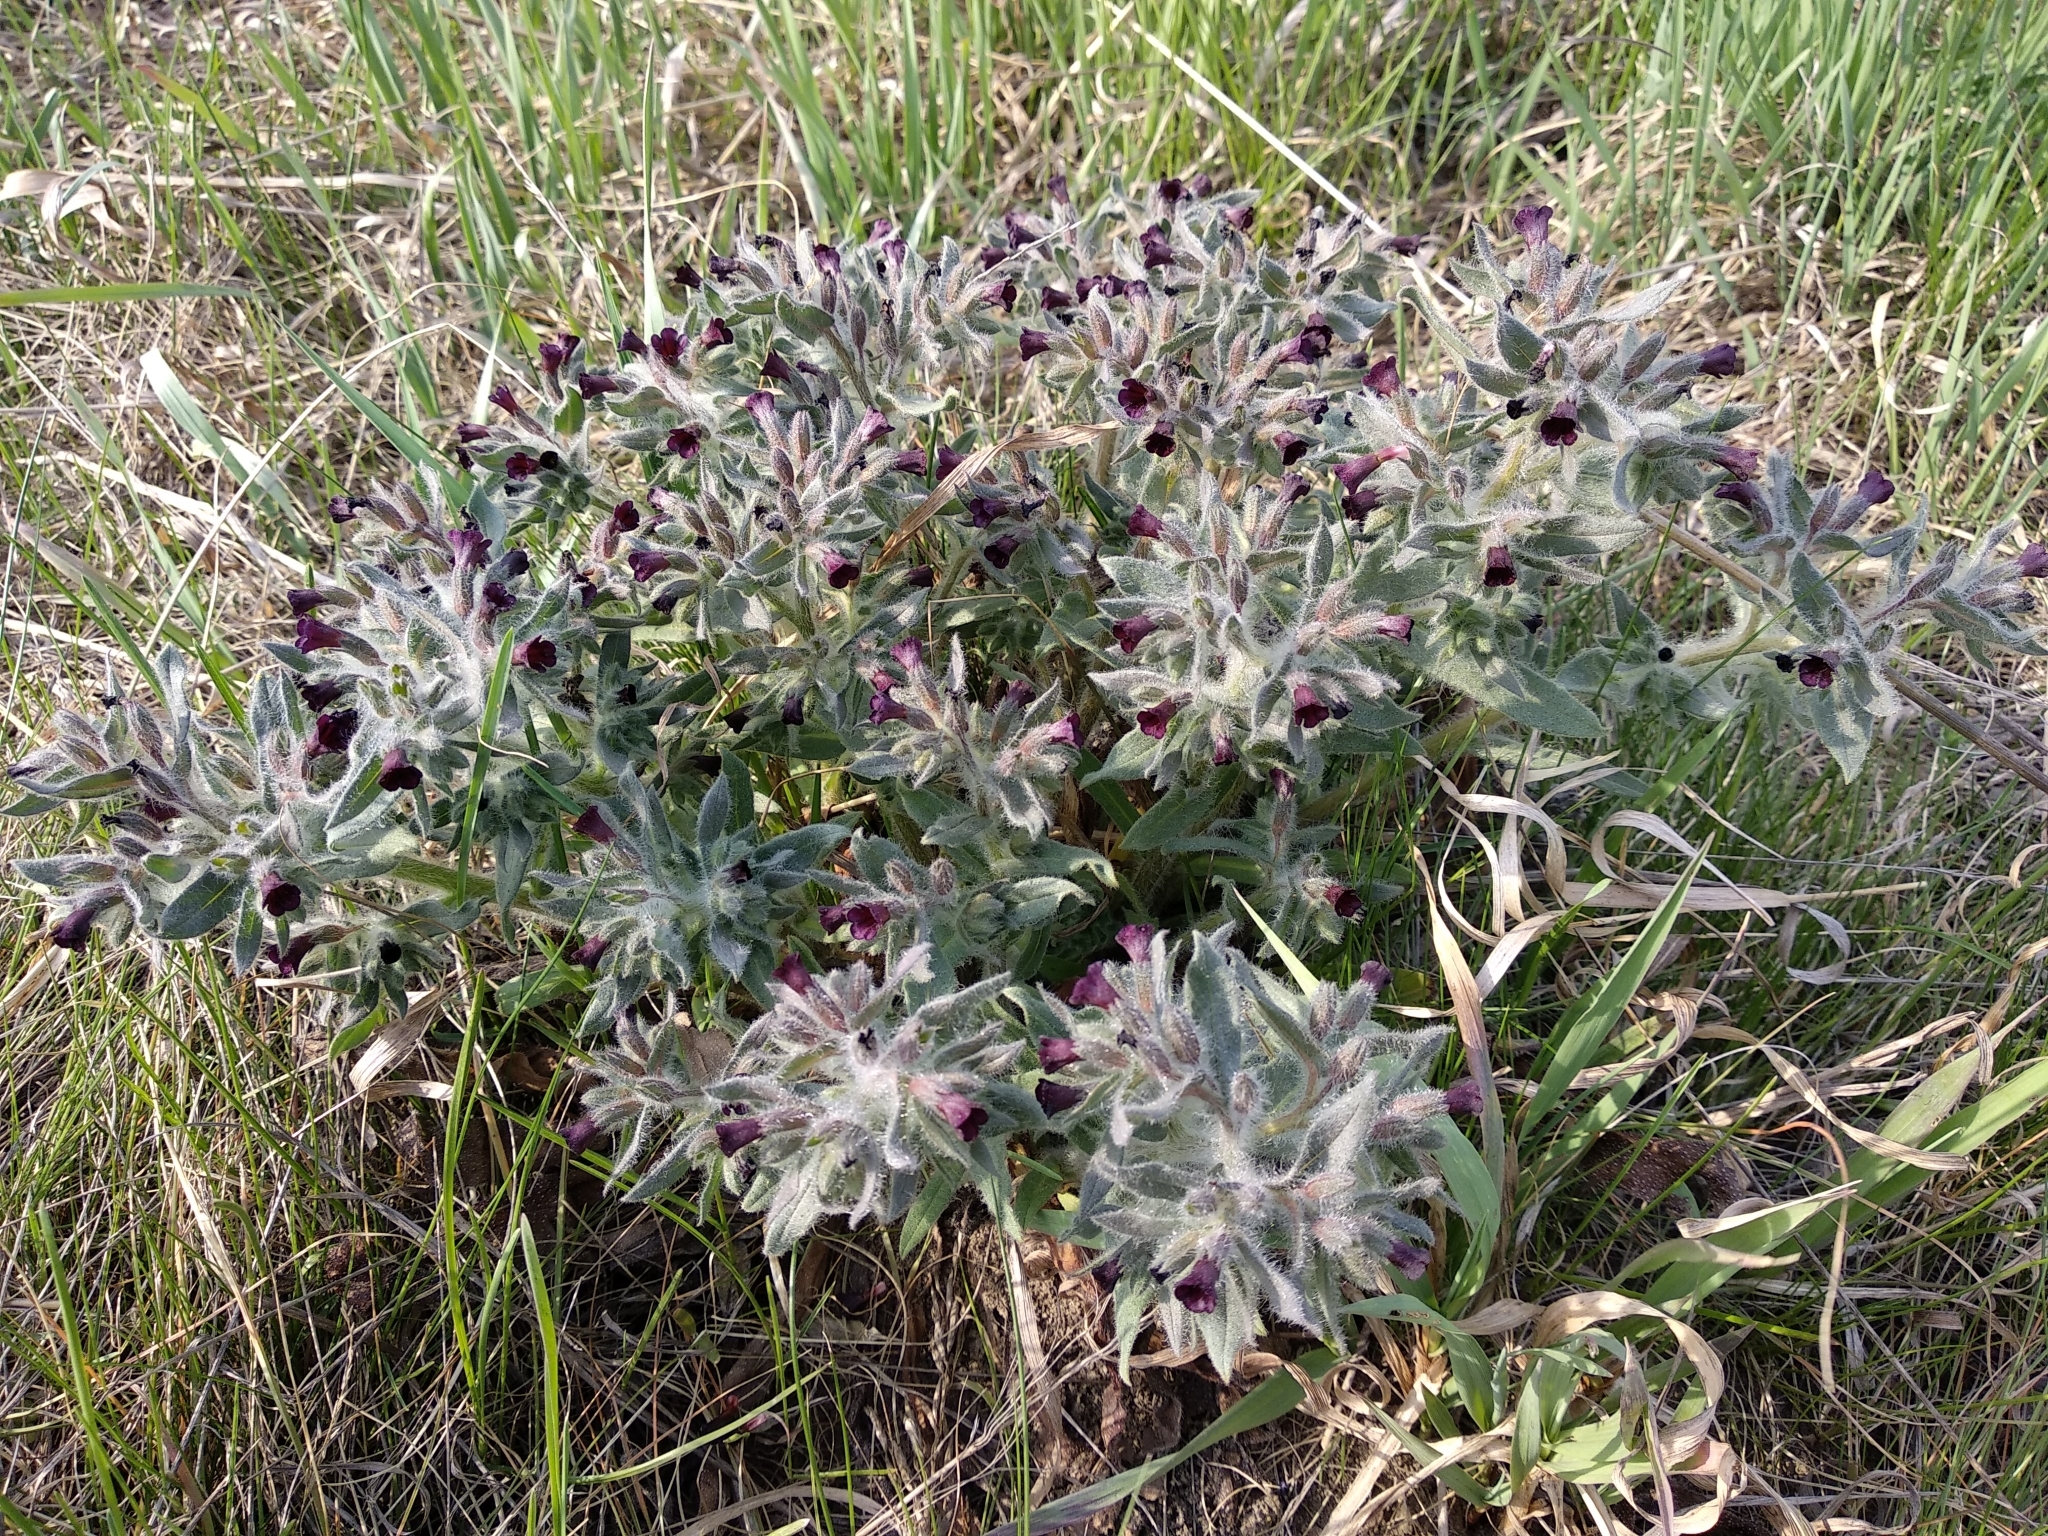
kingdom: Plantae
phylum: Tracheophyta
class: Magnoliopsida
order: Boraginales
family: Boraginaceae
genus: Nonea
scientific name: Nonea pulla
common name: Brown nonea
